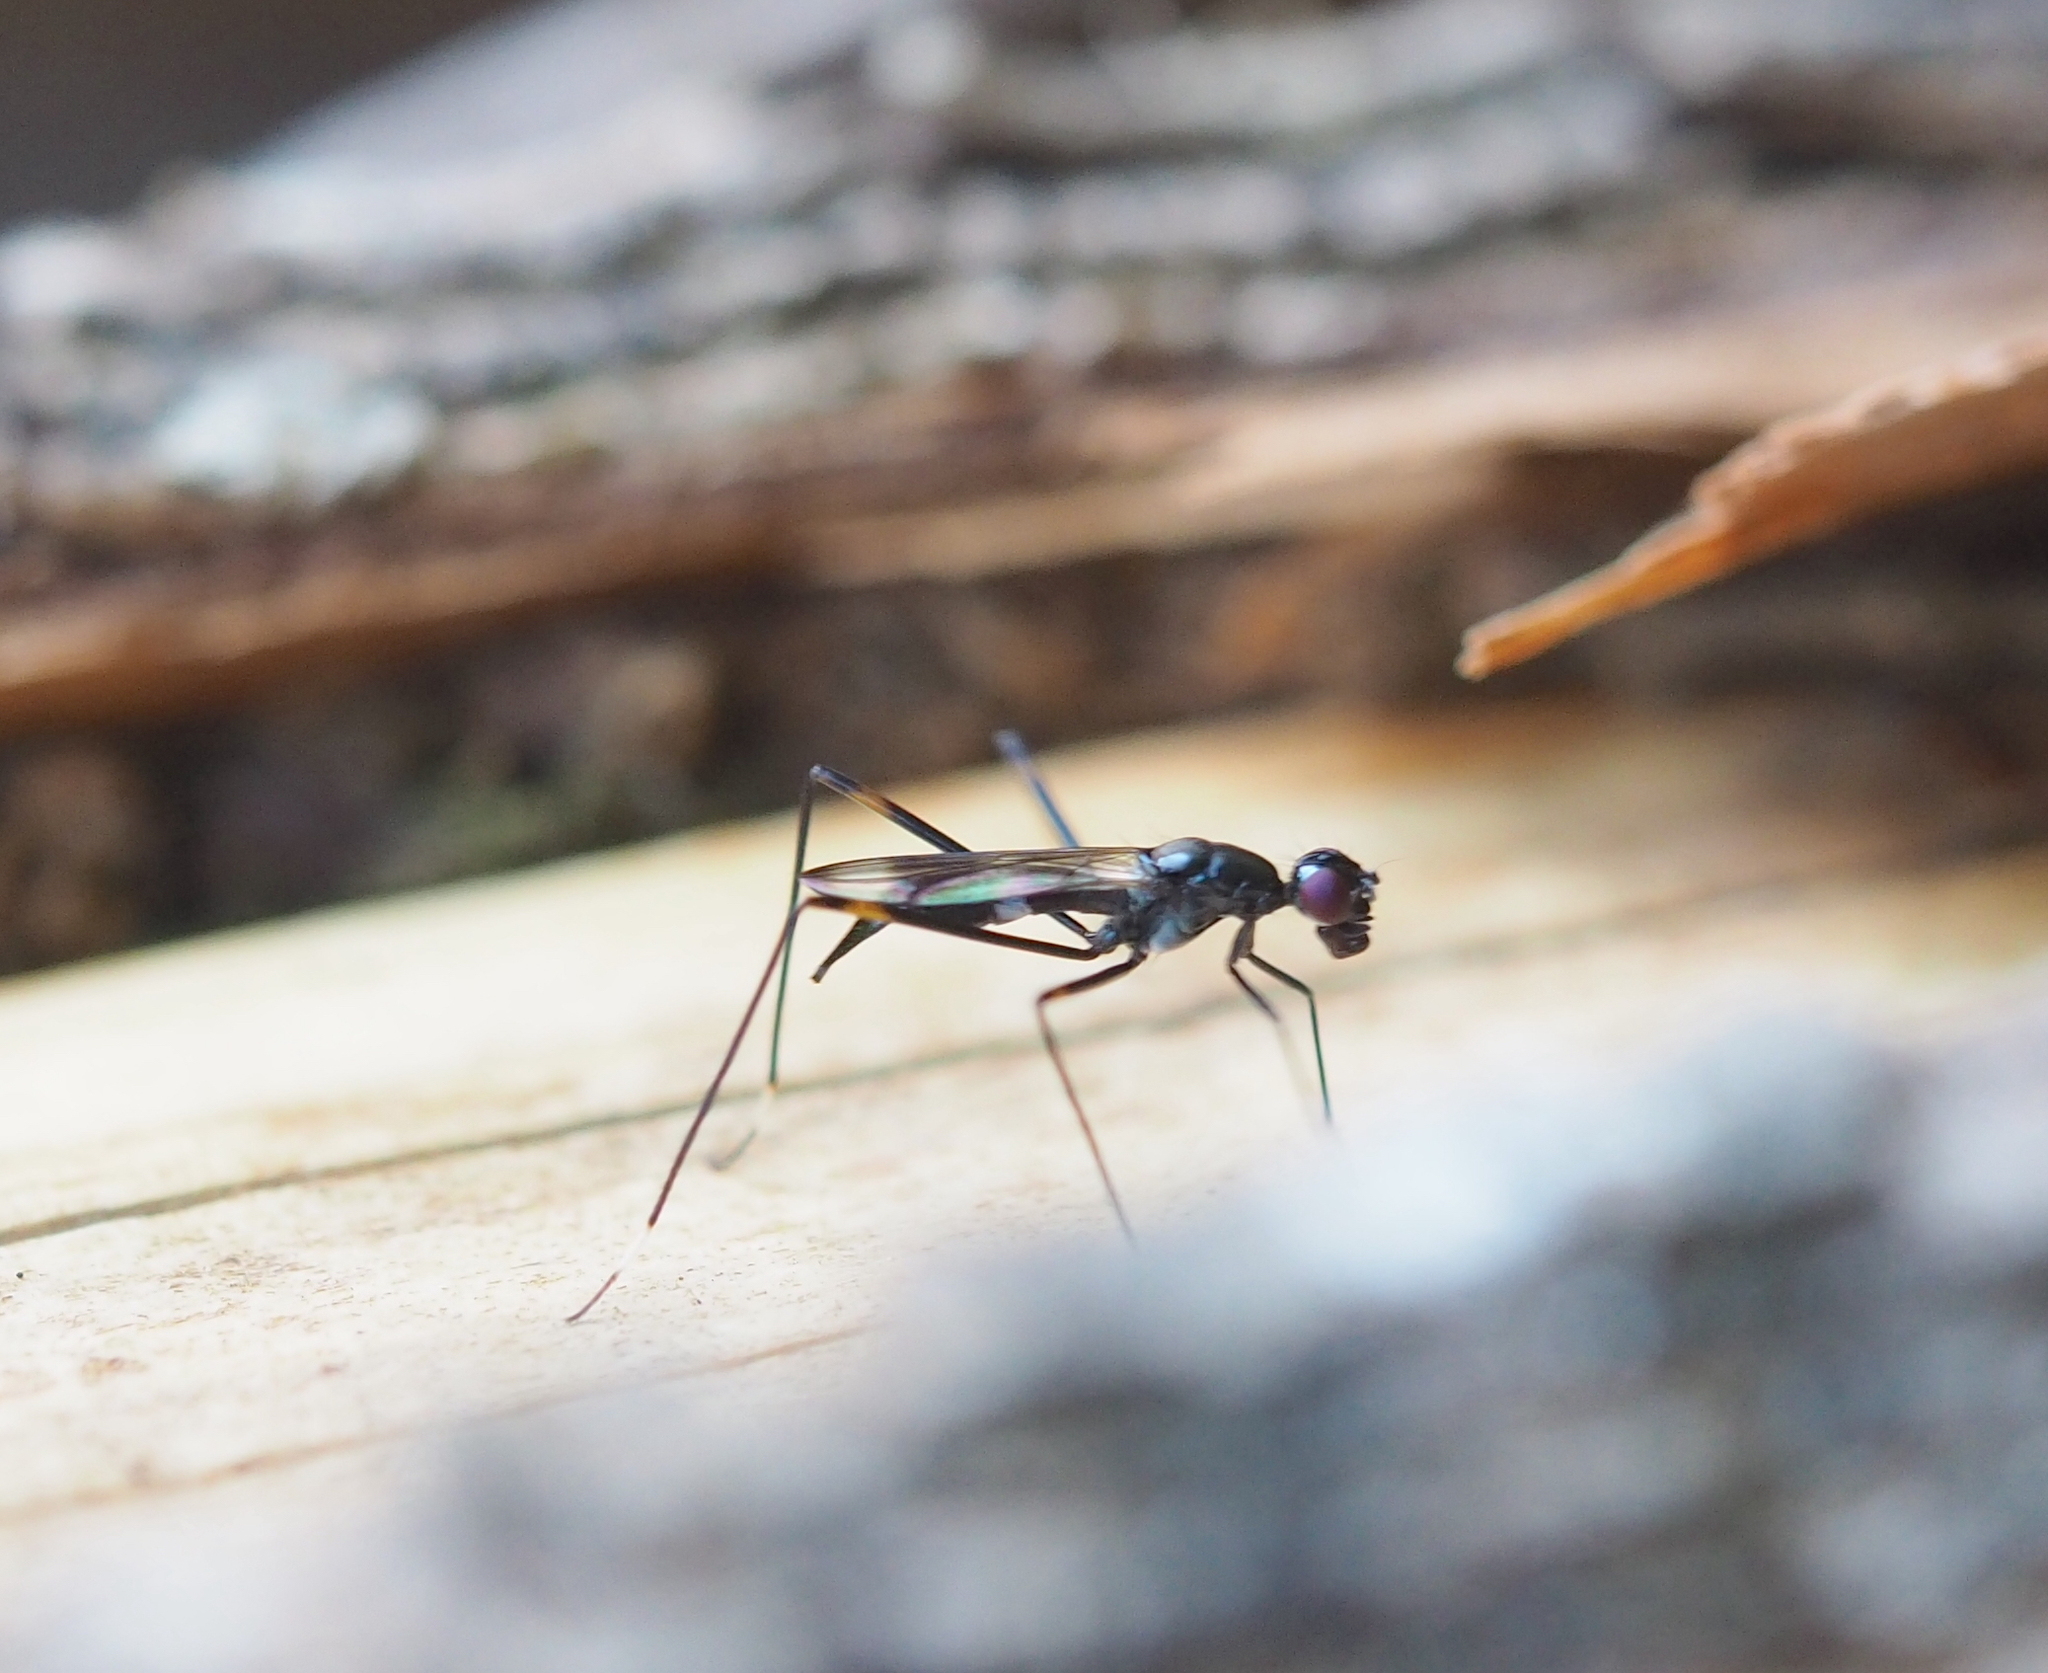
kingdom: Animalia
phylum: Arthropoda
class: Insecta
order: Diptera
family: Micropezidae
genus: Rainieria
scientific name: Rainieria calceata
